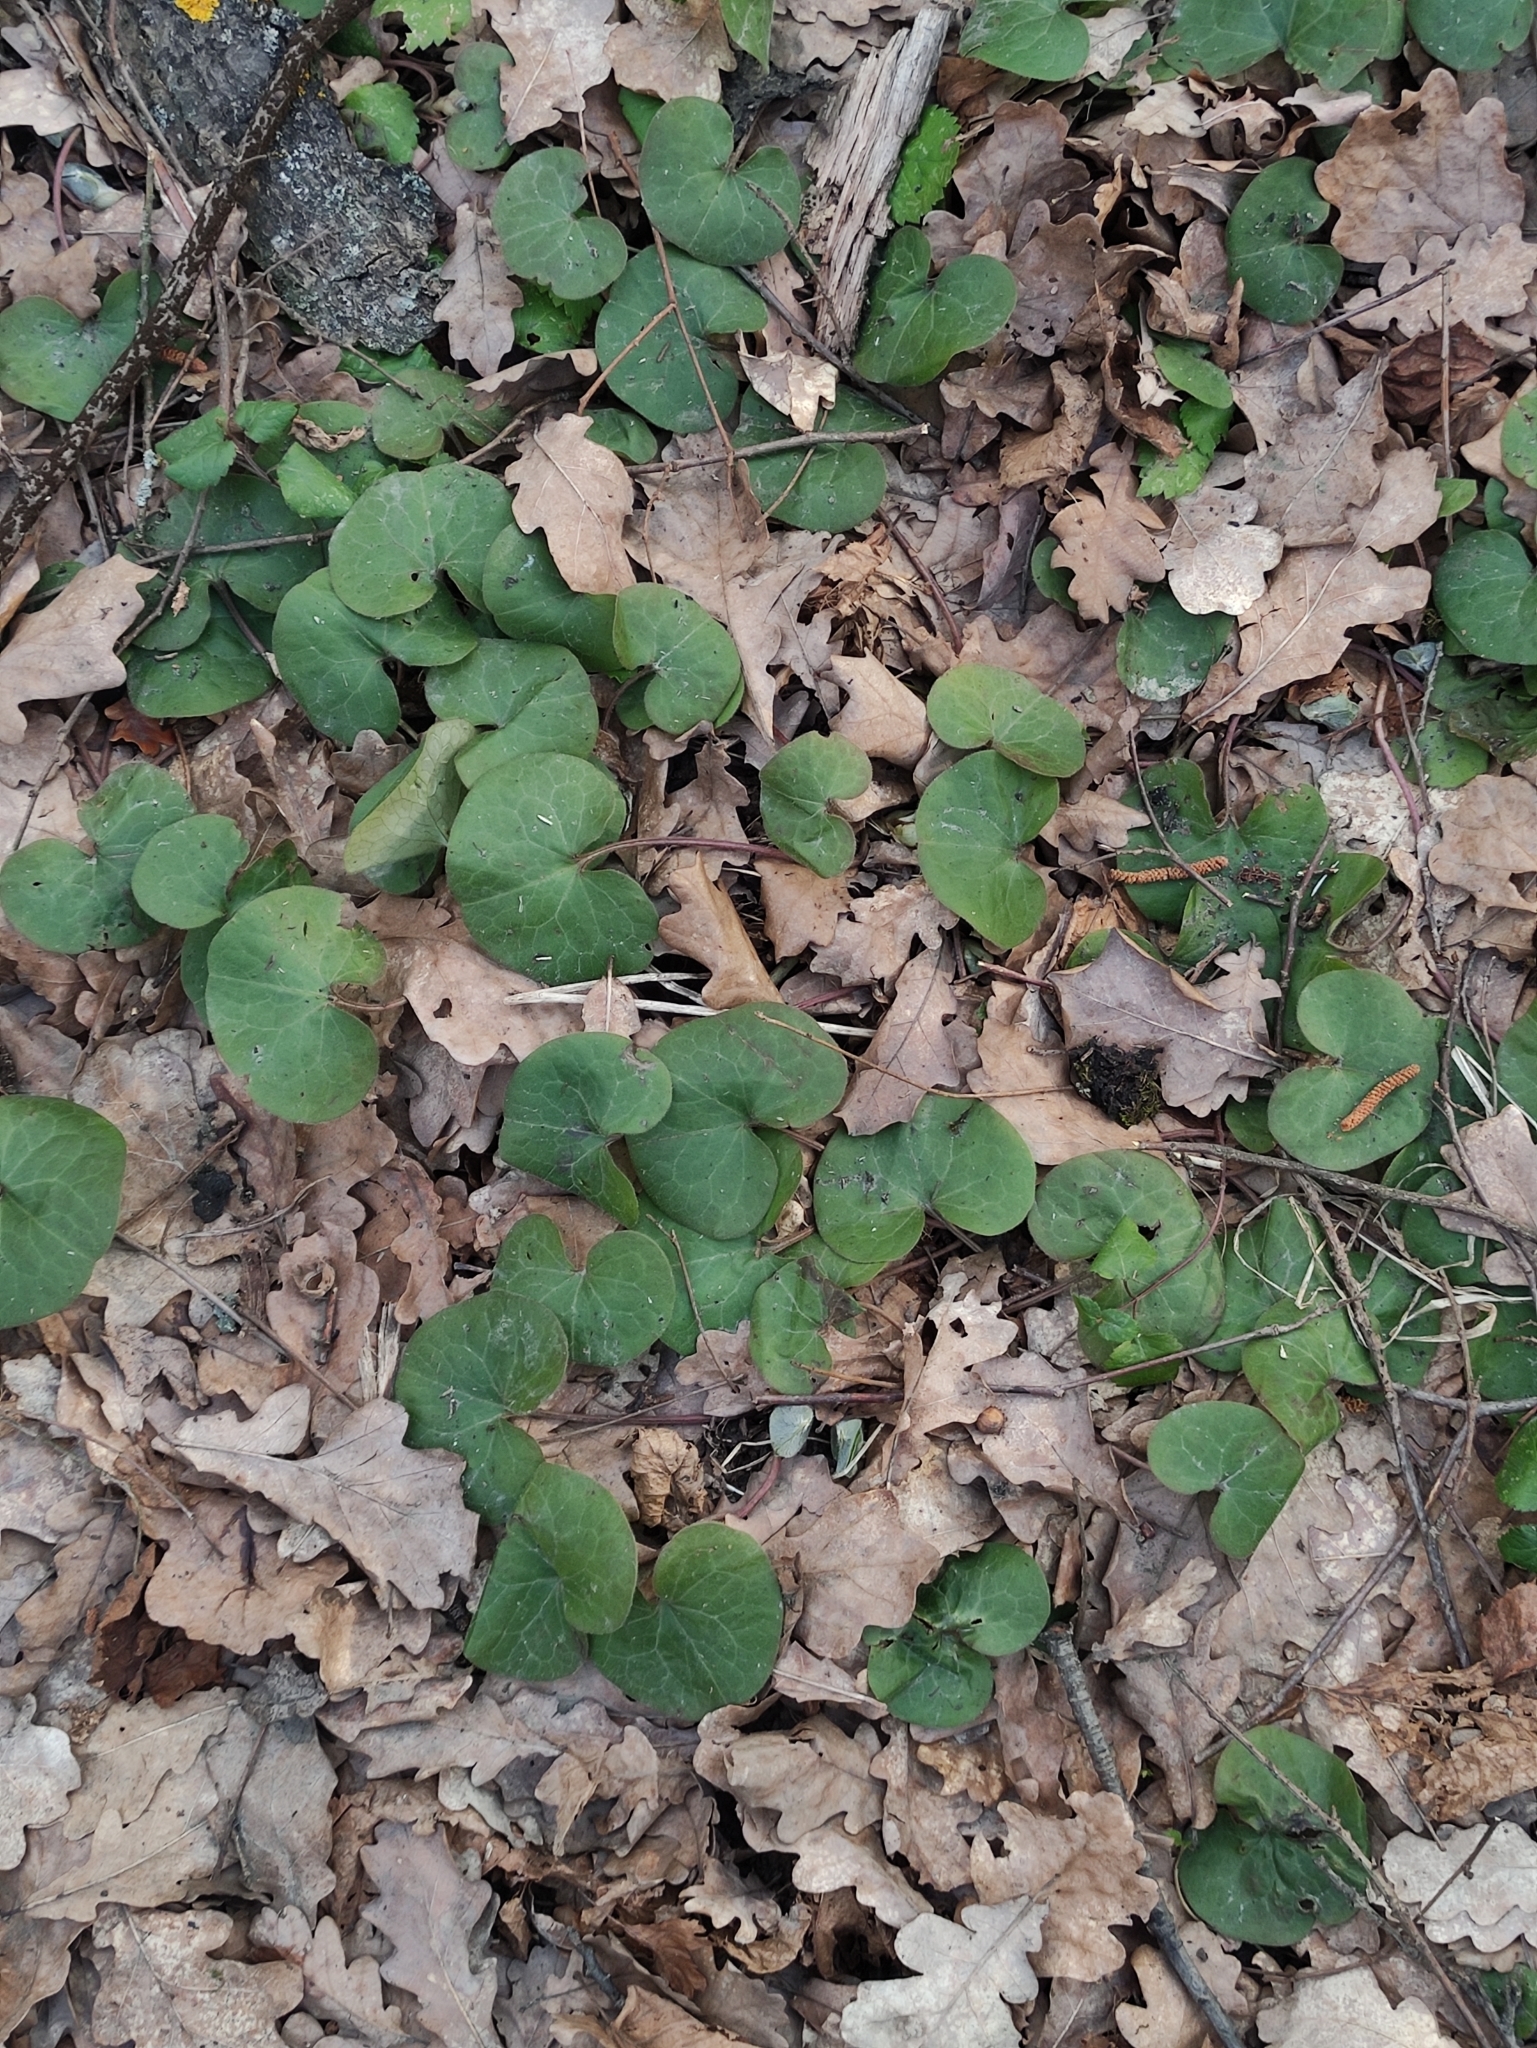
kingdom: Plantae
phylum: Tracheophyta
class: Magnoliopsida
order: Piperales
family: Aristolochiaceae
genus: Asarum
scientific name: Asarum europaeum
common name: Asarabacca
